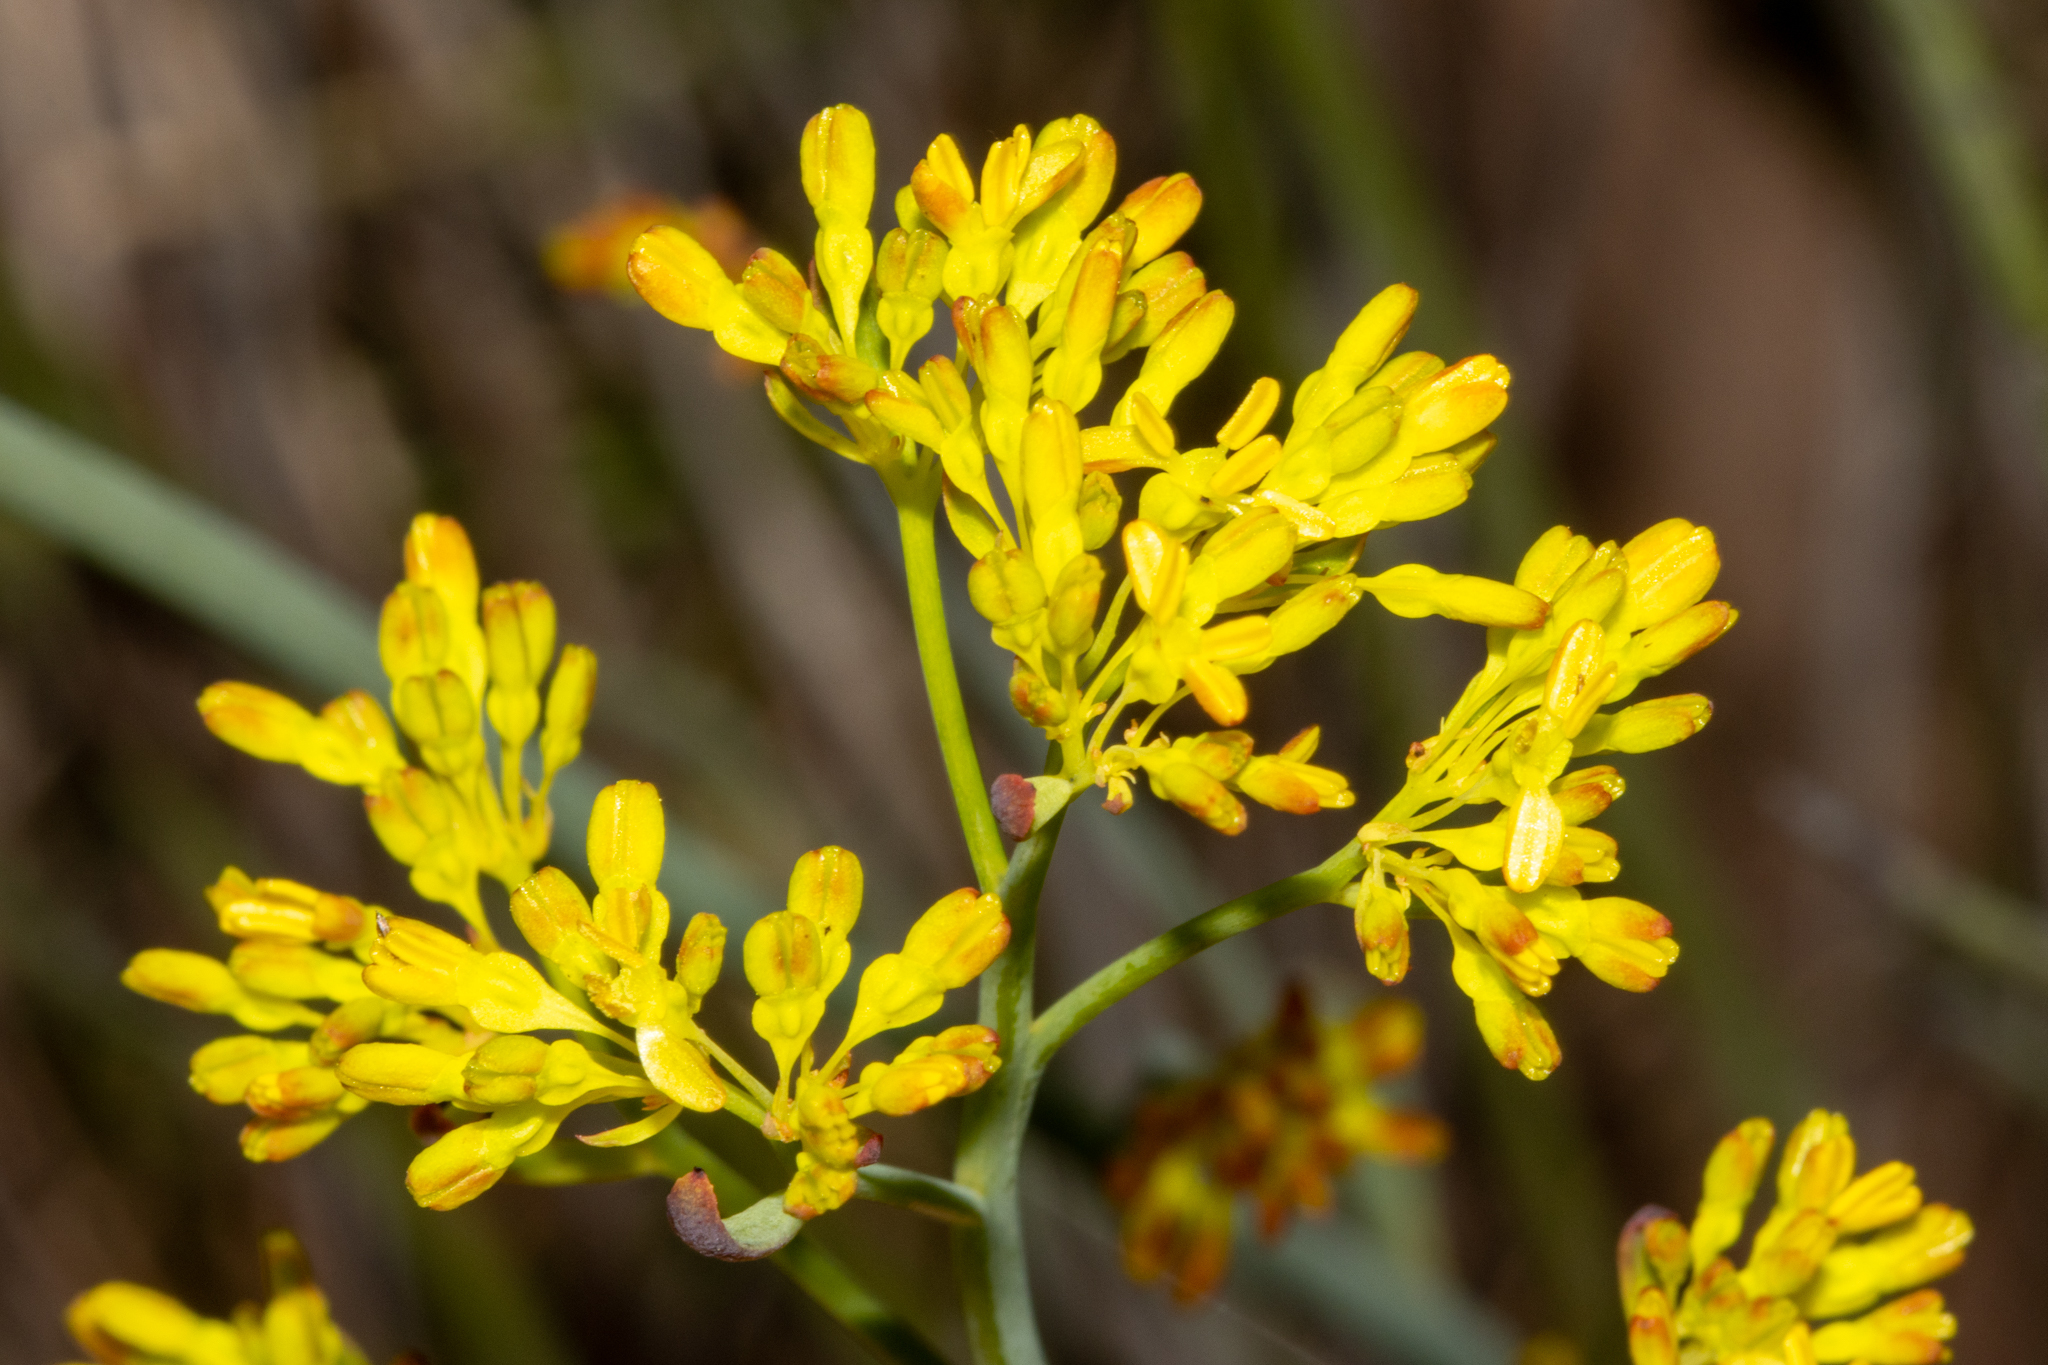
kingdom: Plantae
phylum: Tracheophyta
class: Magnoliopsida
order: Saxifragales
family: Haloragaceae
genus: Glischrocaryon
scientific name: Glischrocaryon behrii
